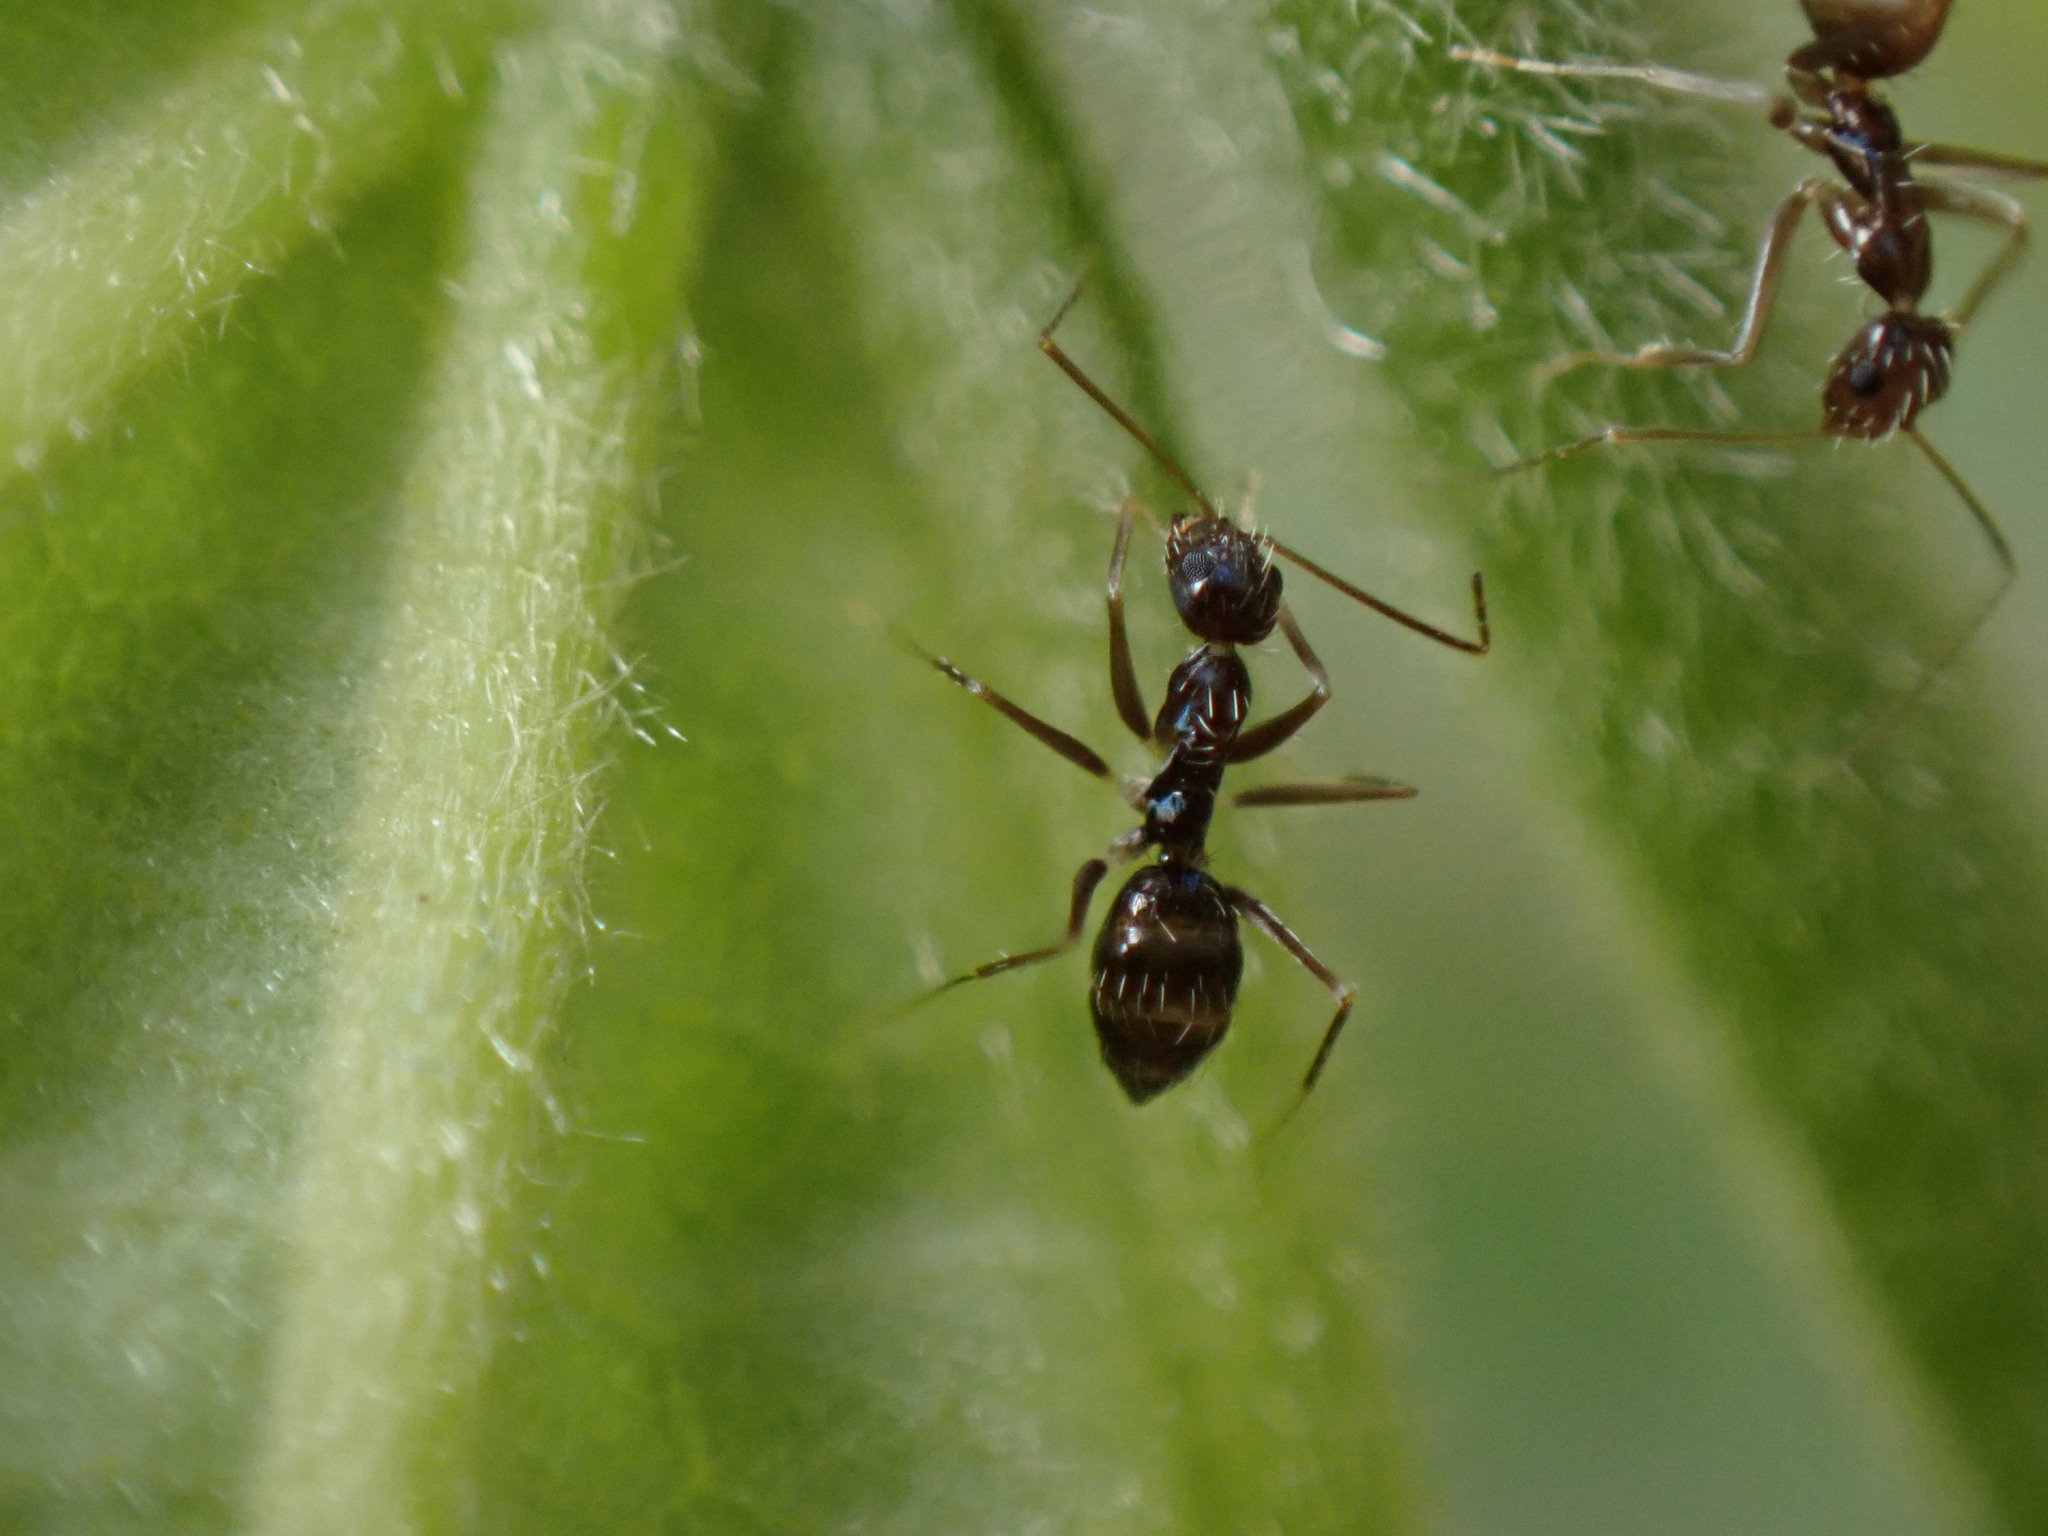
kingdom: Animalia
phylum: Arthropoda
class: Insecta
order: Hymenoptera
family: Formicidae
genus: Paratrechina
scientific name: Paratrechina longicornis
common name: Longhorned crazy ant
